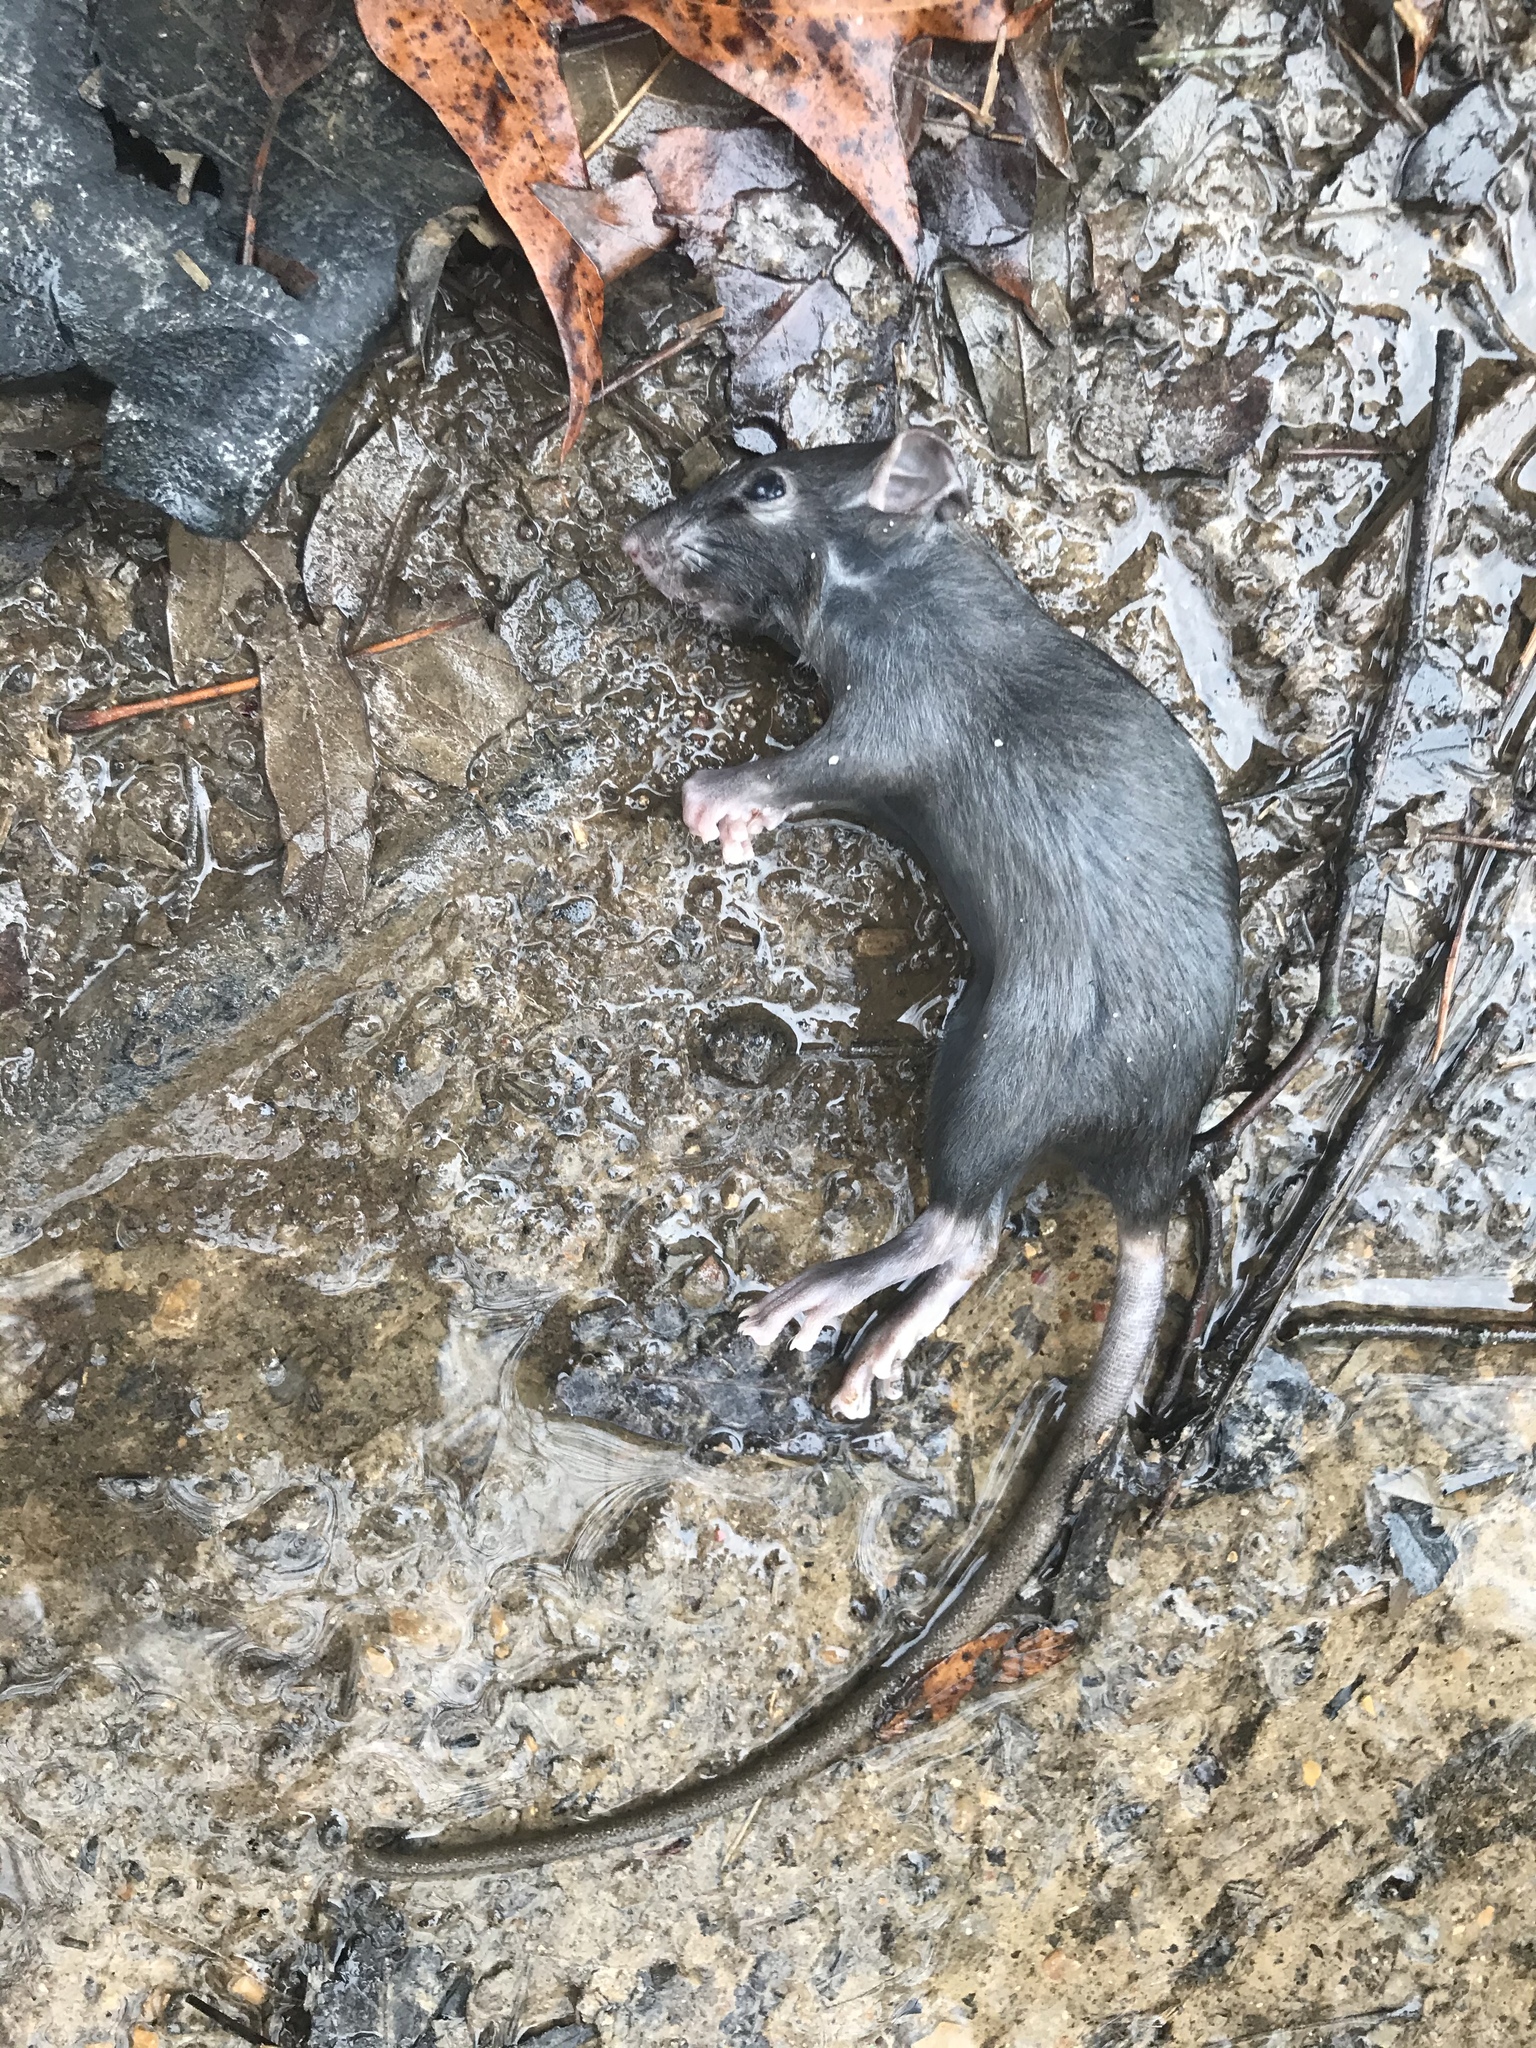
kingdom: Animalia
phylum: Chordata
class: Mammalia
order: Rodentia
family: Muridae
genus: Rattus
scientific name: Rattus rattus
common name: Black rat
